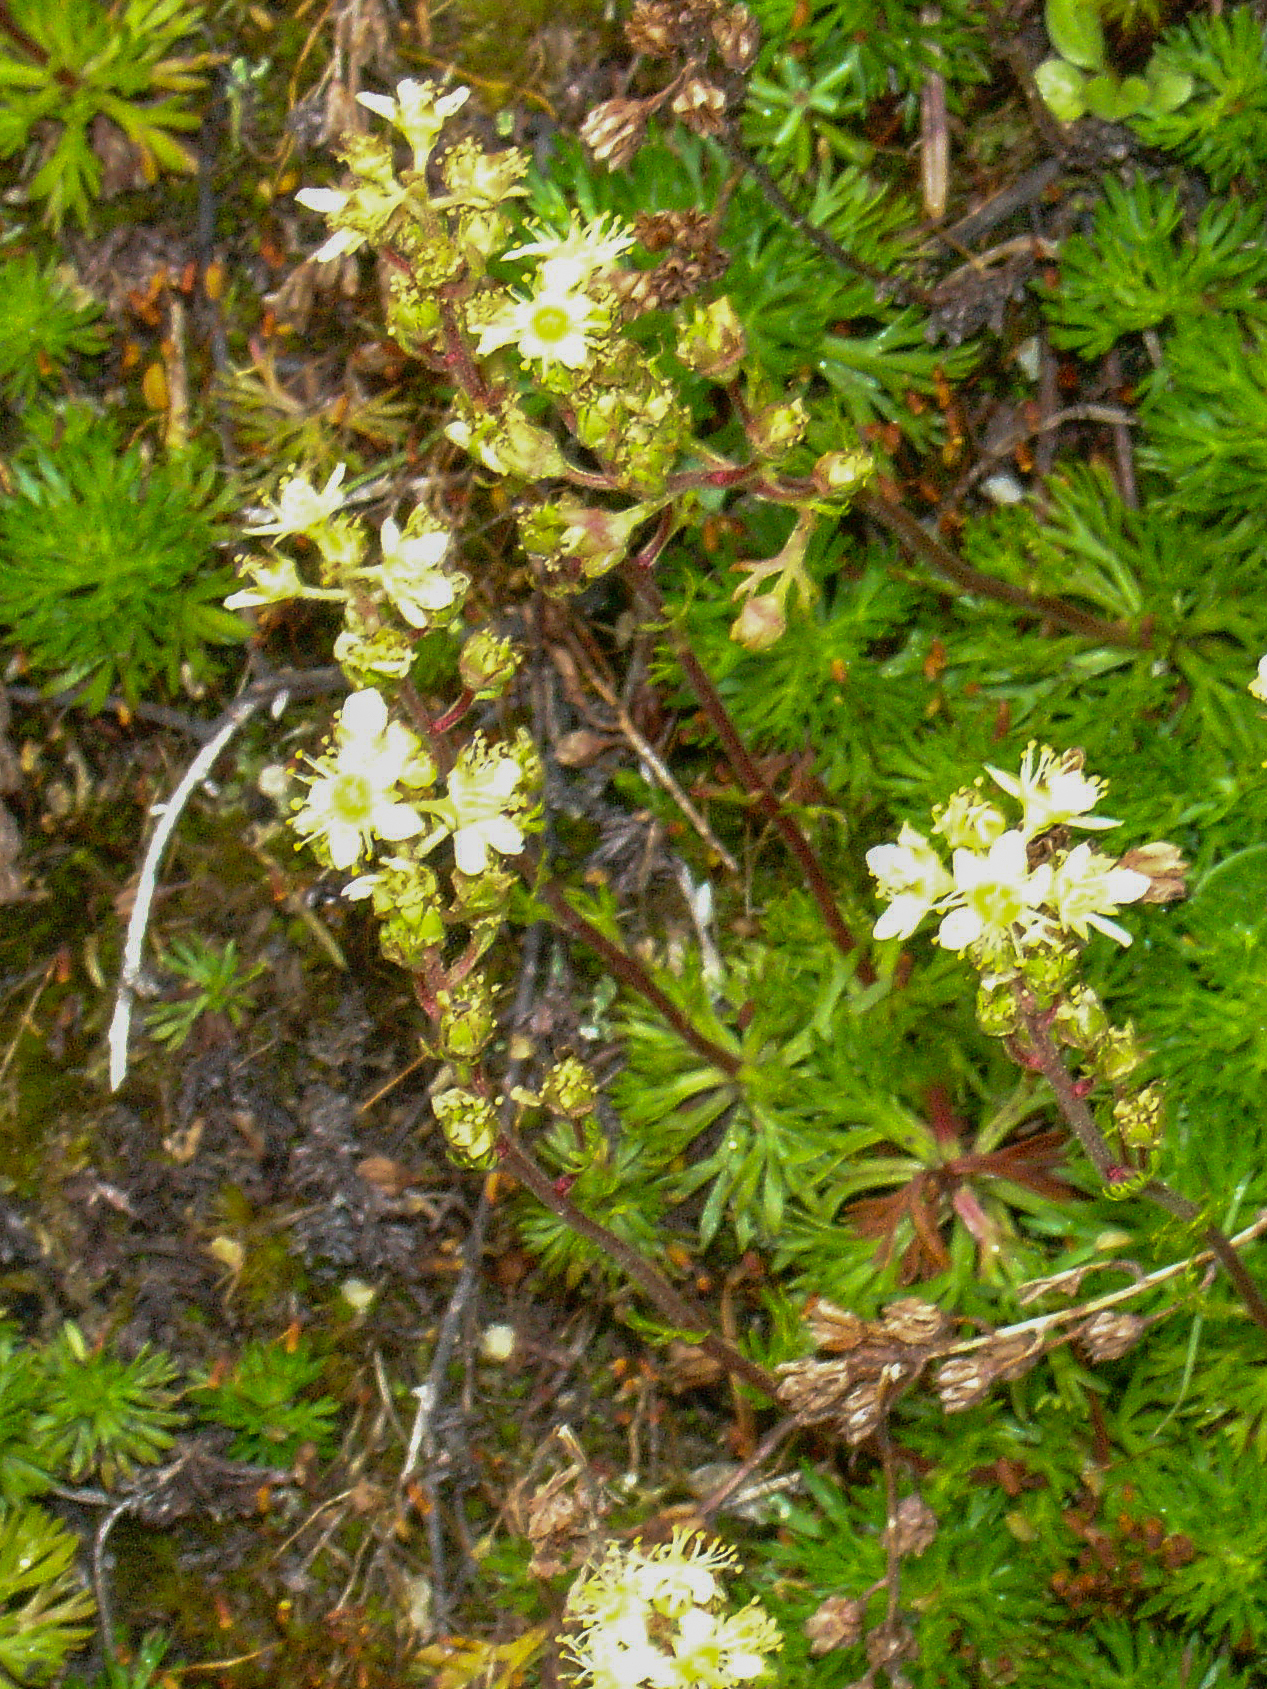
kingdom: Plantae
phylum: Tracheophyta
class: Magnoliopsida
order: Rosales
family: Rosaceae
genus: Luetkea
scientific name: Luetkea pectinata
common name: Partridgefoot
